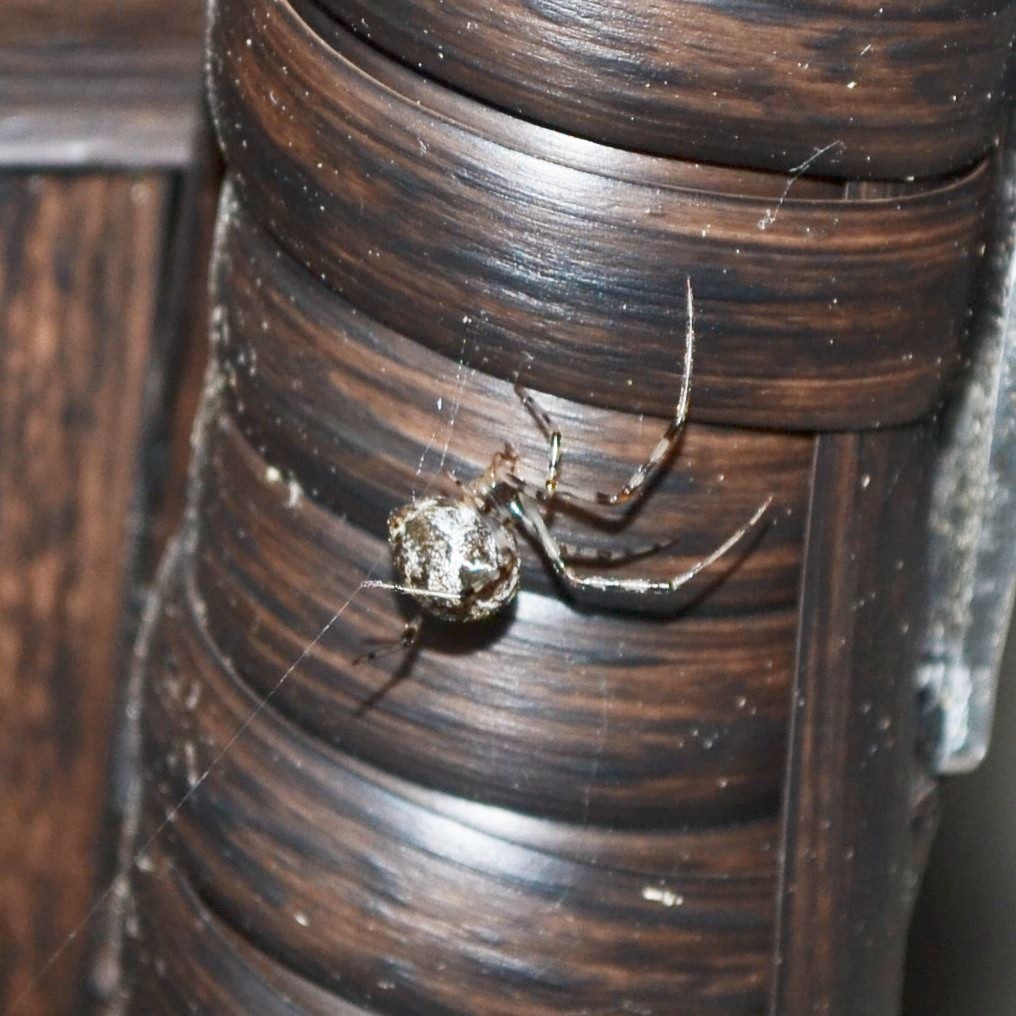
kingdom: Animalia
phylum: Arthropoda
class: Arachnida
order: Araneae
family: Theridiidae
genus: Parasteatoda
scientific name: Parasteatoda tepidariorum
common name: Common house spider
